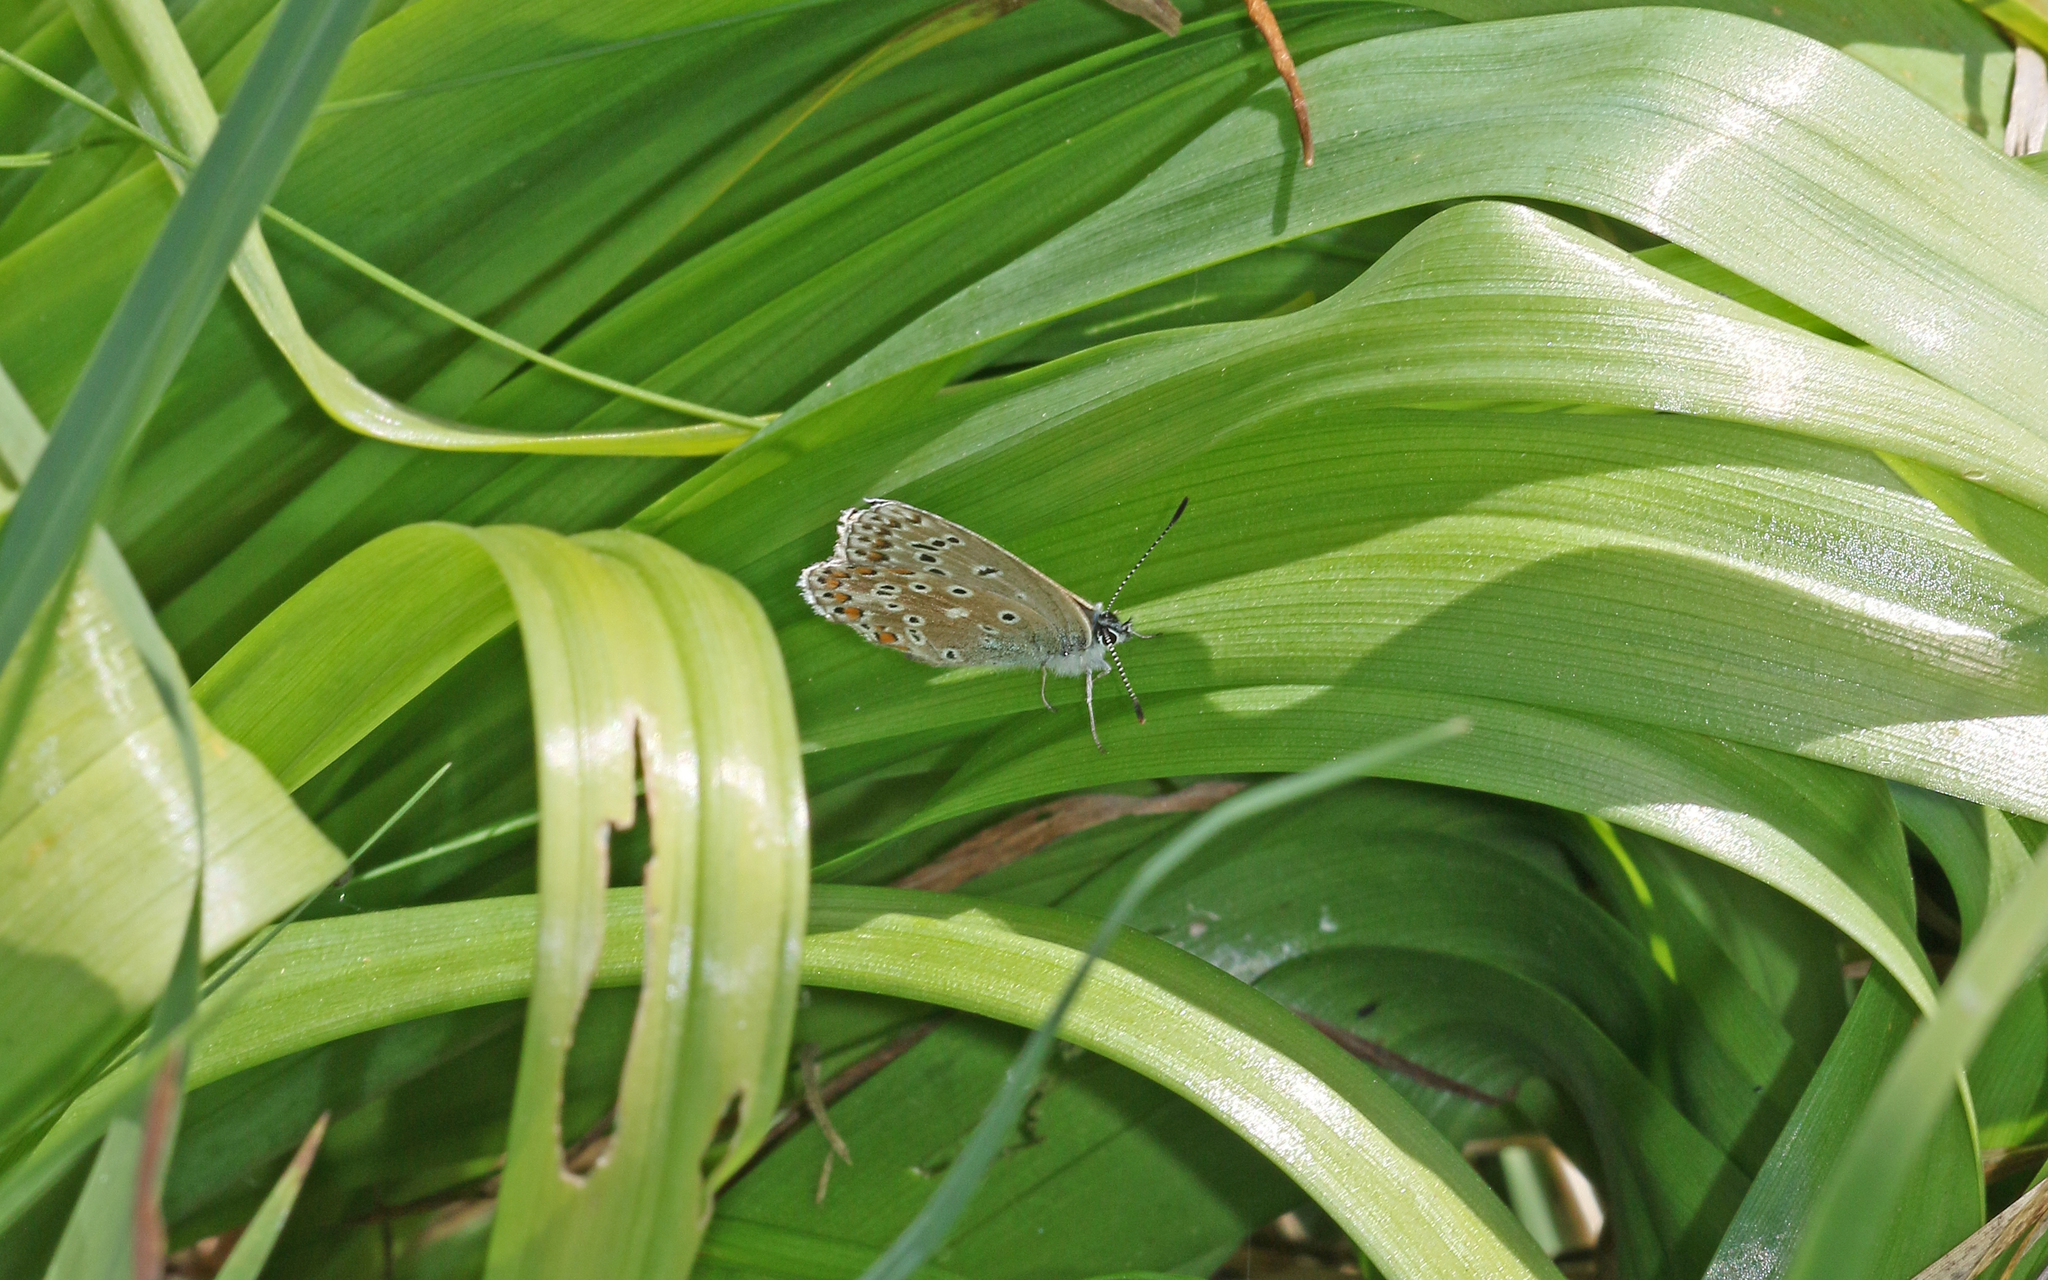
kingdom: Animalia
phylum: Arthropoda
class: Insecta
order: Lepidoptera
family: Lycaenidae
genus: Lysandra
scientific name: Lysandra bellargus
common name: Adonis blue
